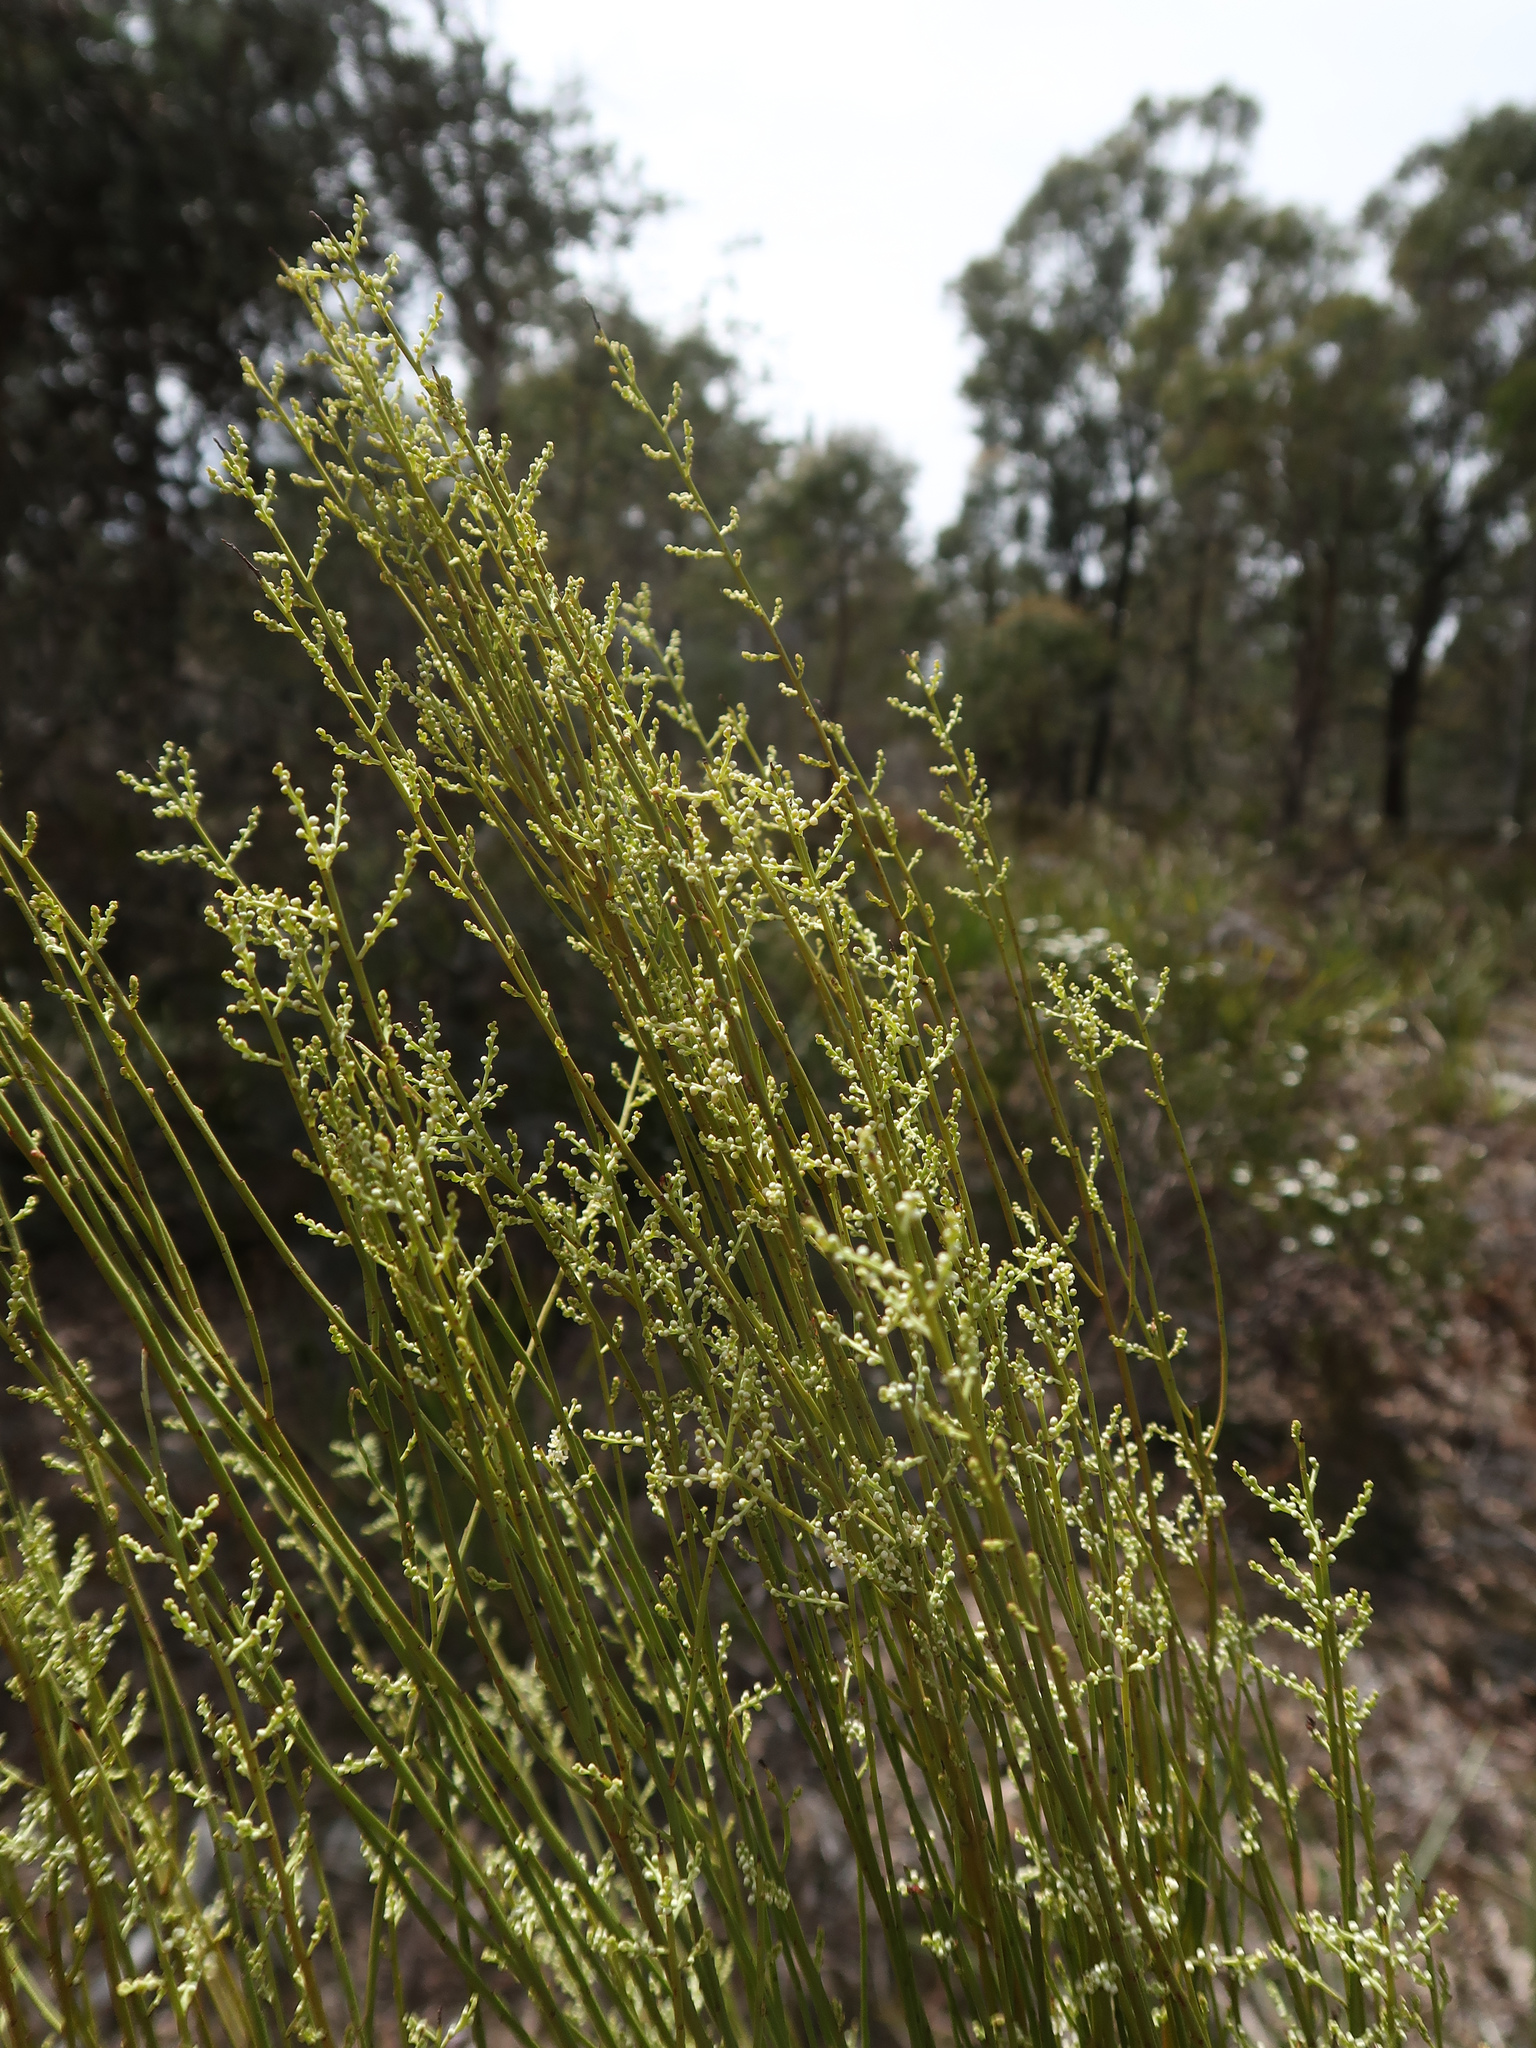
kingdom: Plantae
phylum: Tracheophyta
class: Magnoliopsida
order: Santalales
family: Amphorogynaceae
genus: Leptomeria
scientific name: Leptomeria drupacea
